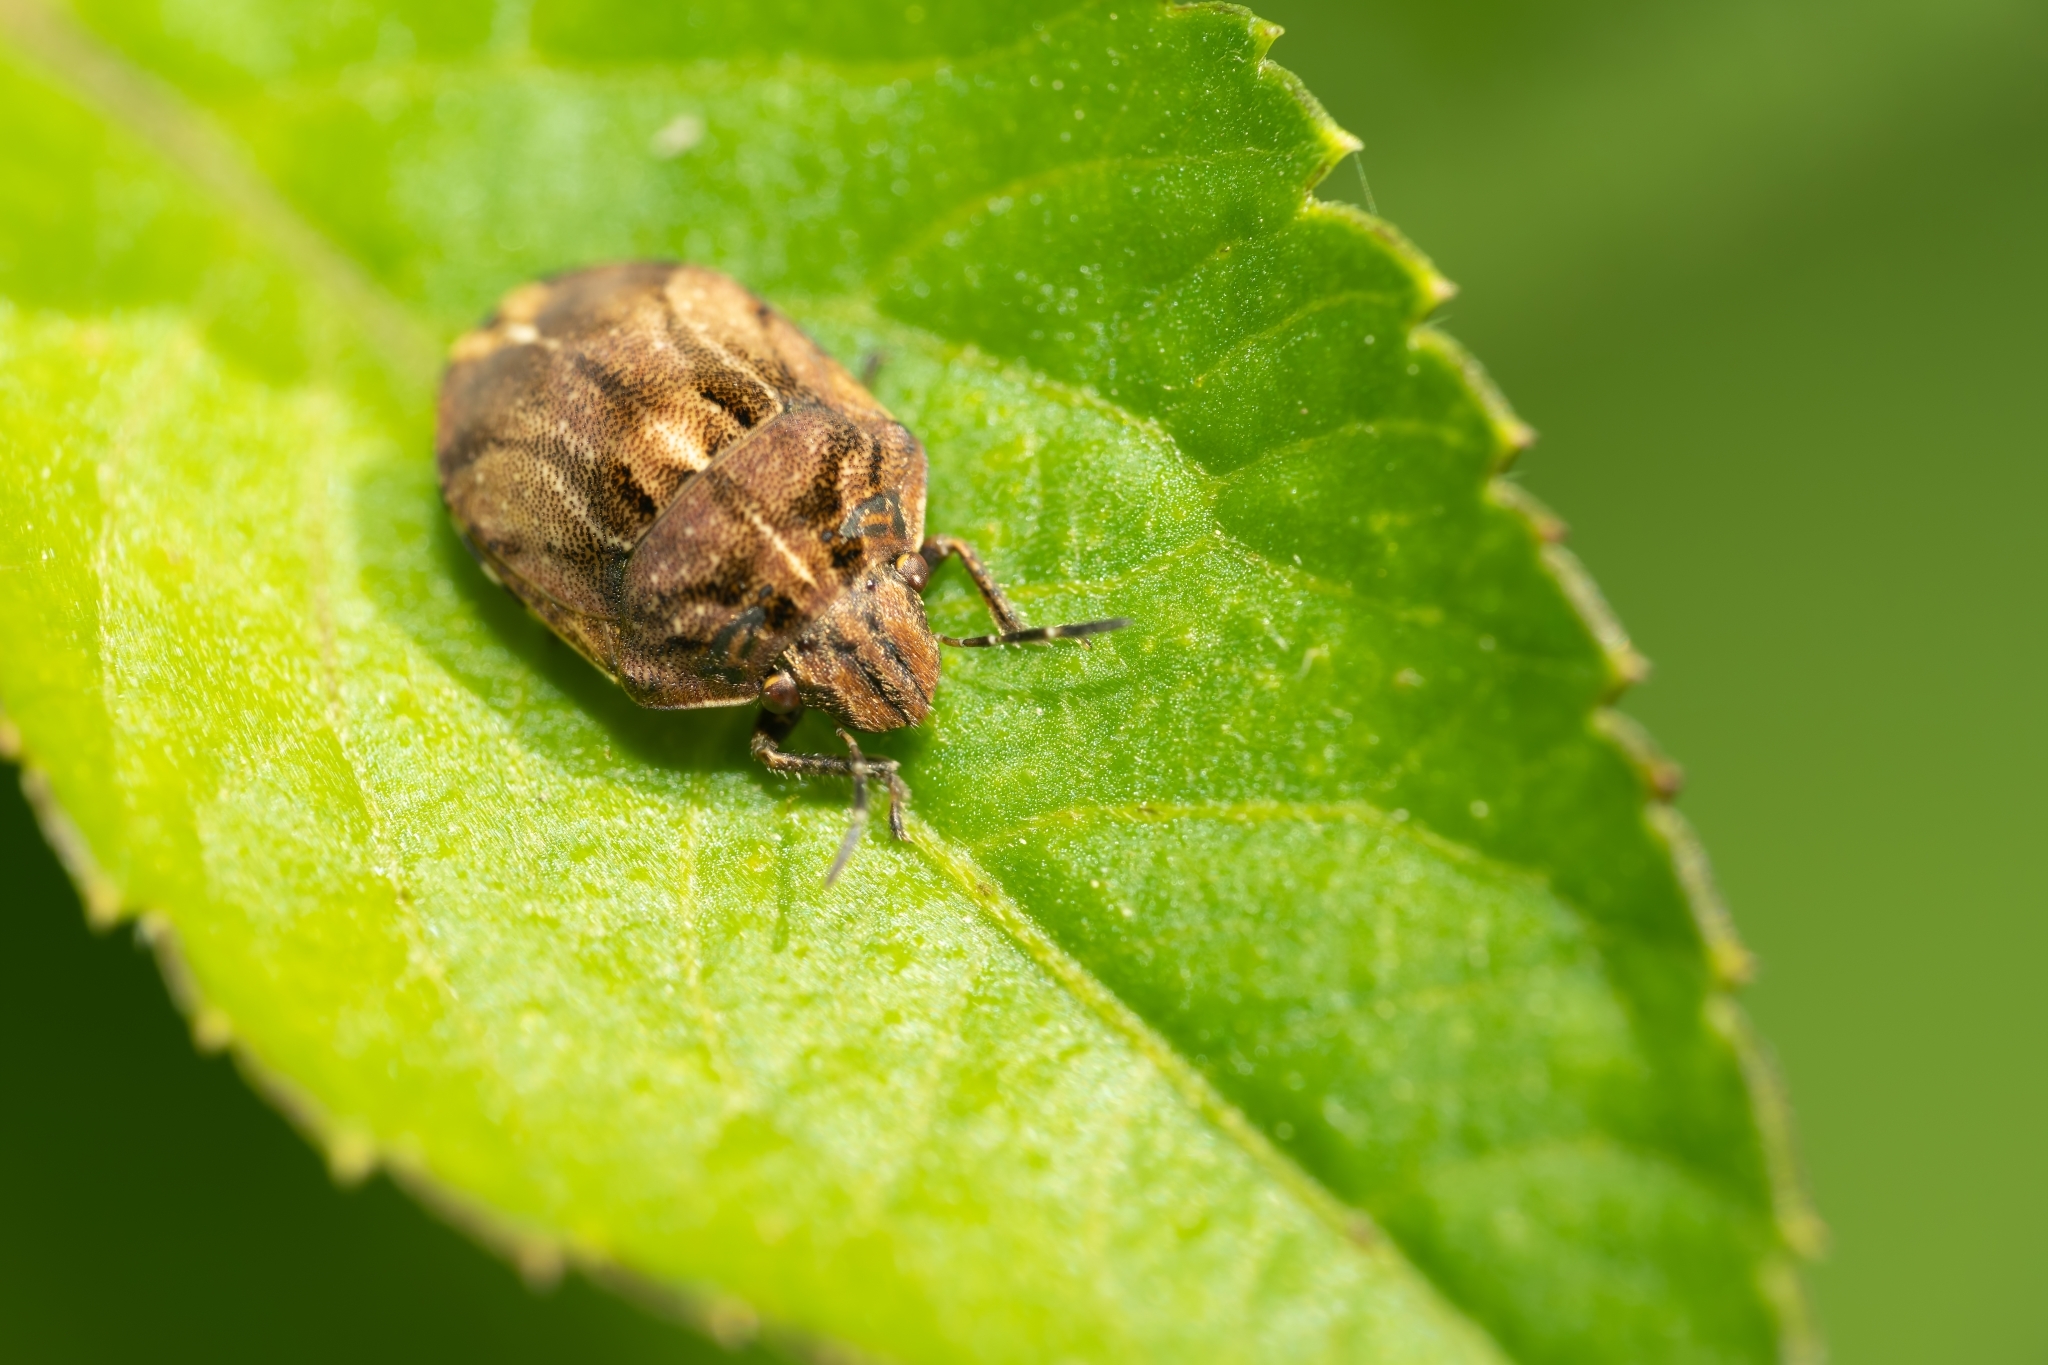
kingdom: Animalia
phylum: Arthropoda
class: Insecta
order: Hemiptera
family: Scutelleridae
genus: Homaemus
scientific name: Homaemus proteus
